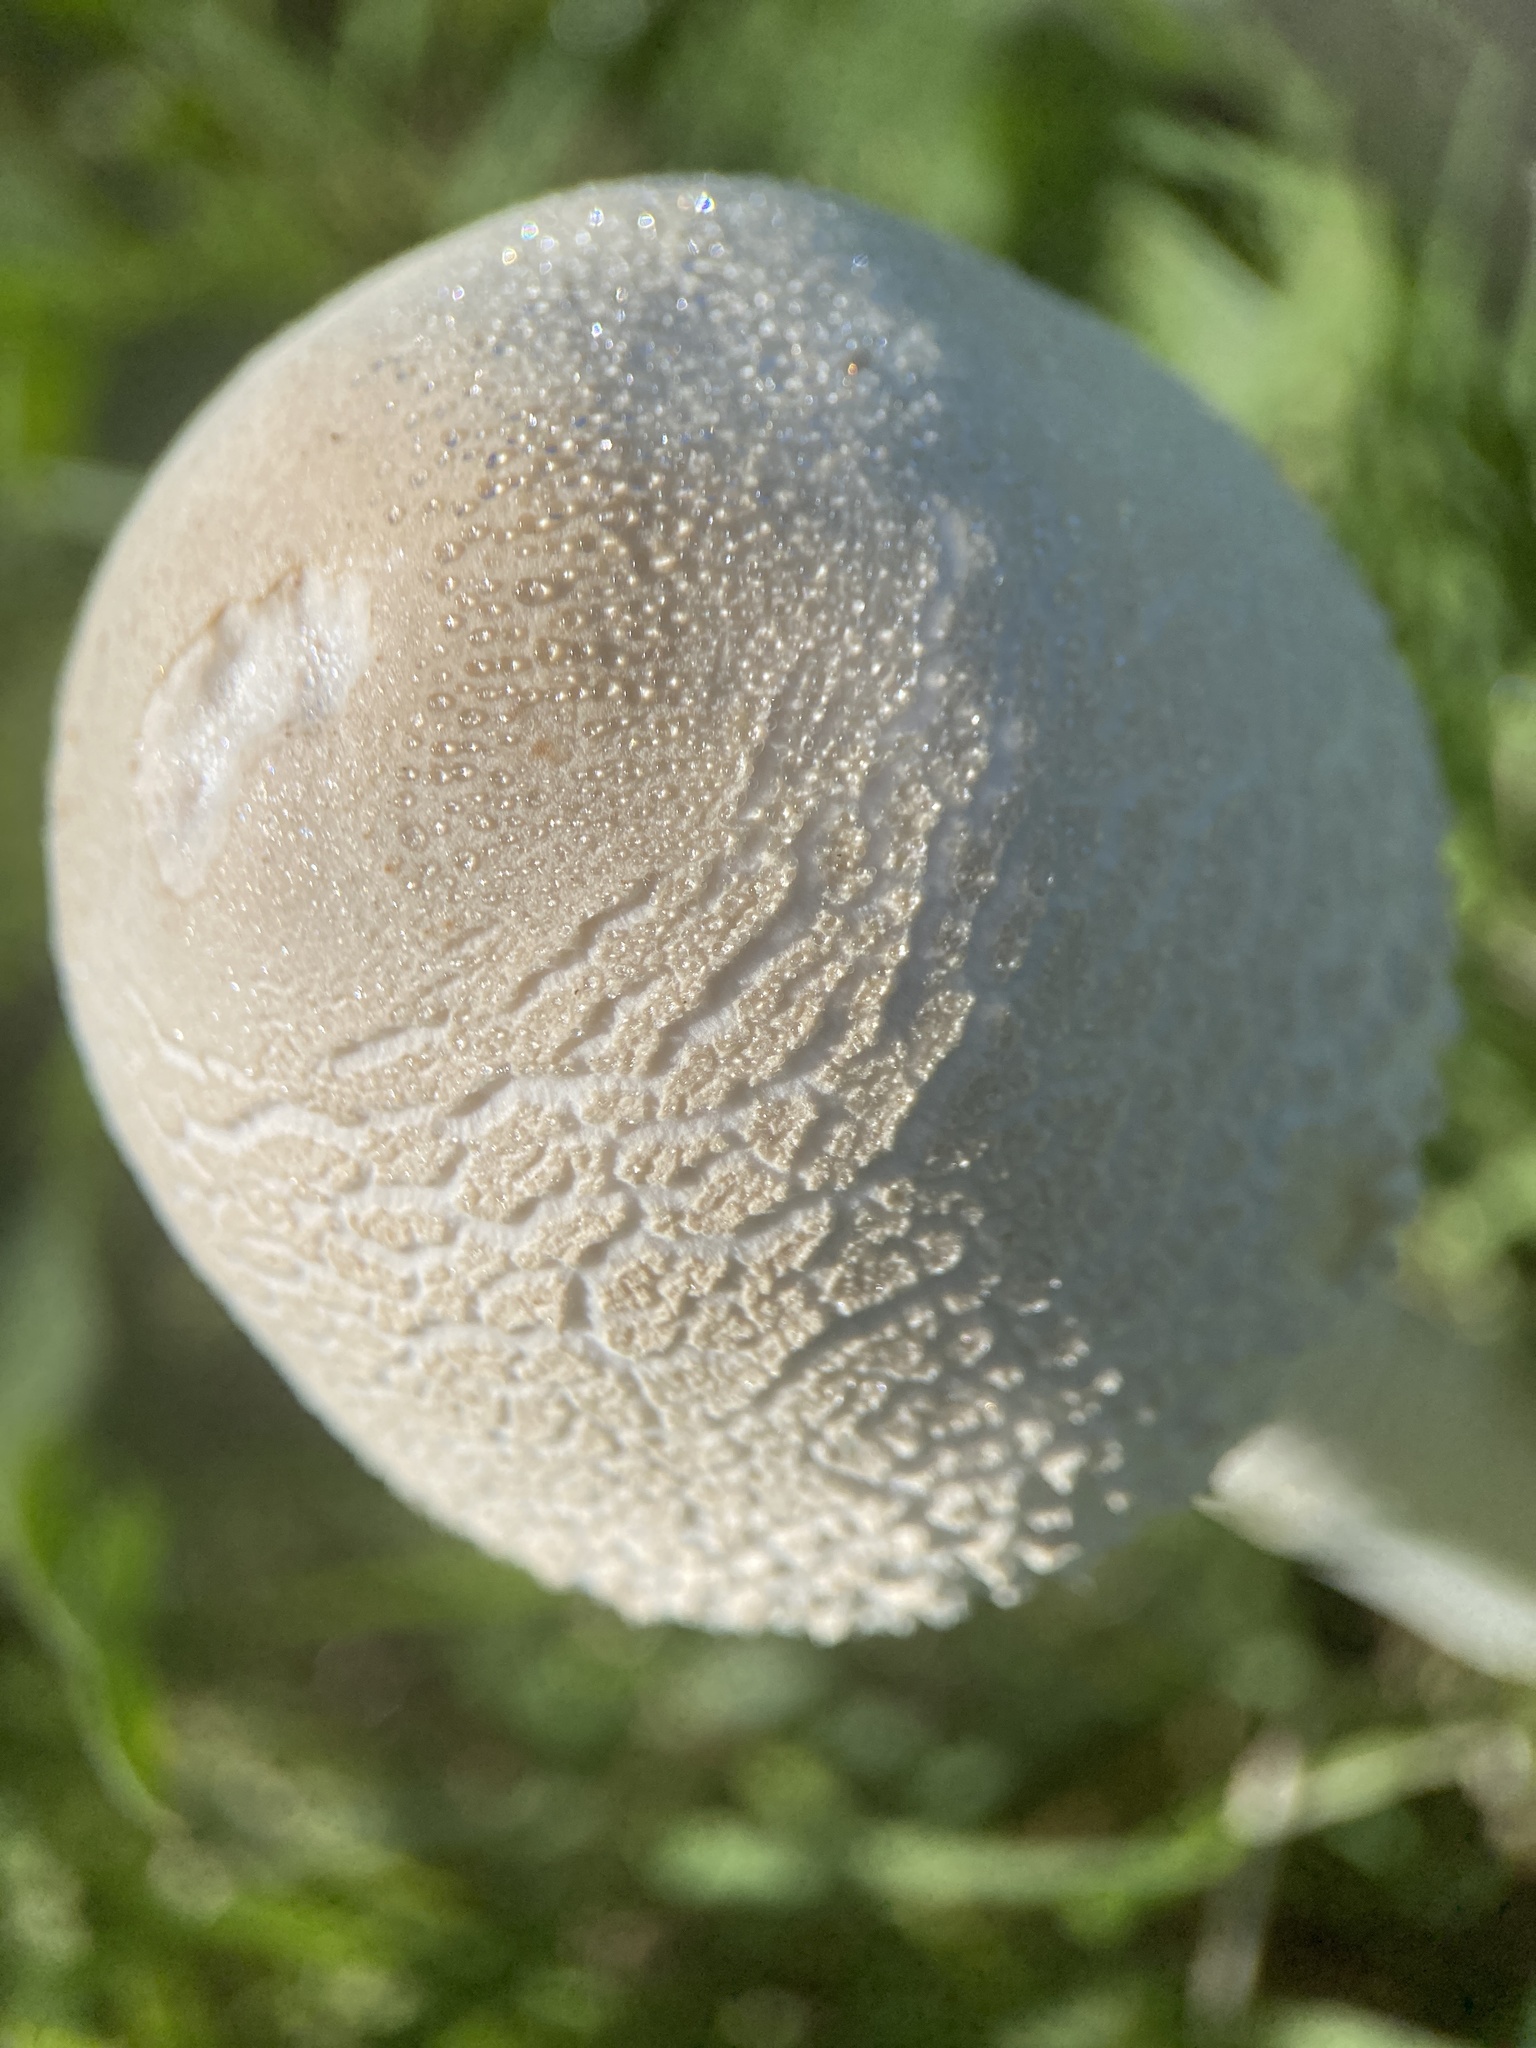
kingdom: Fungi
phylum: Basidiomycota
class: Agaricomycetes
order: Agaricales
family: Agaricaceae
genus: Macrolepiota
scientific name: Macrolepiota dolichaula
